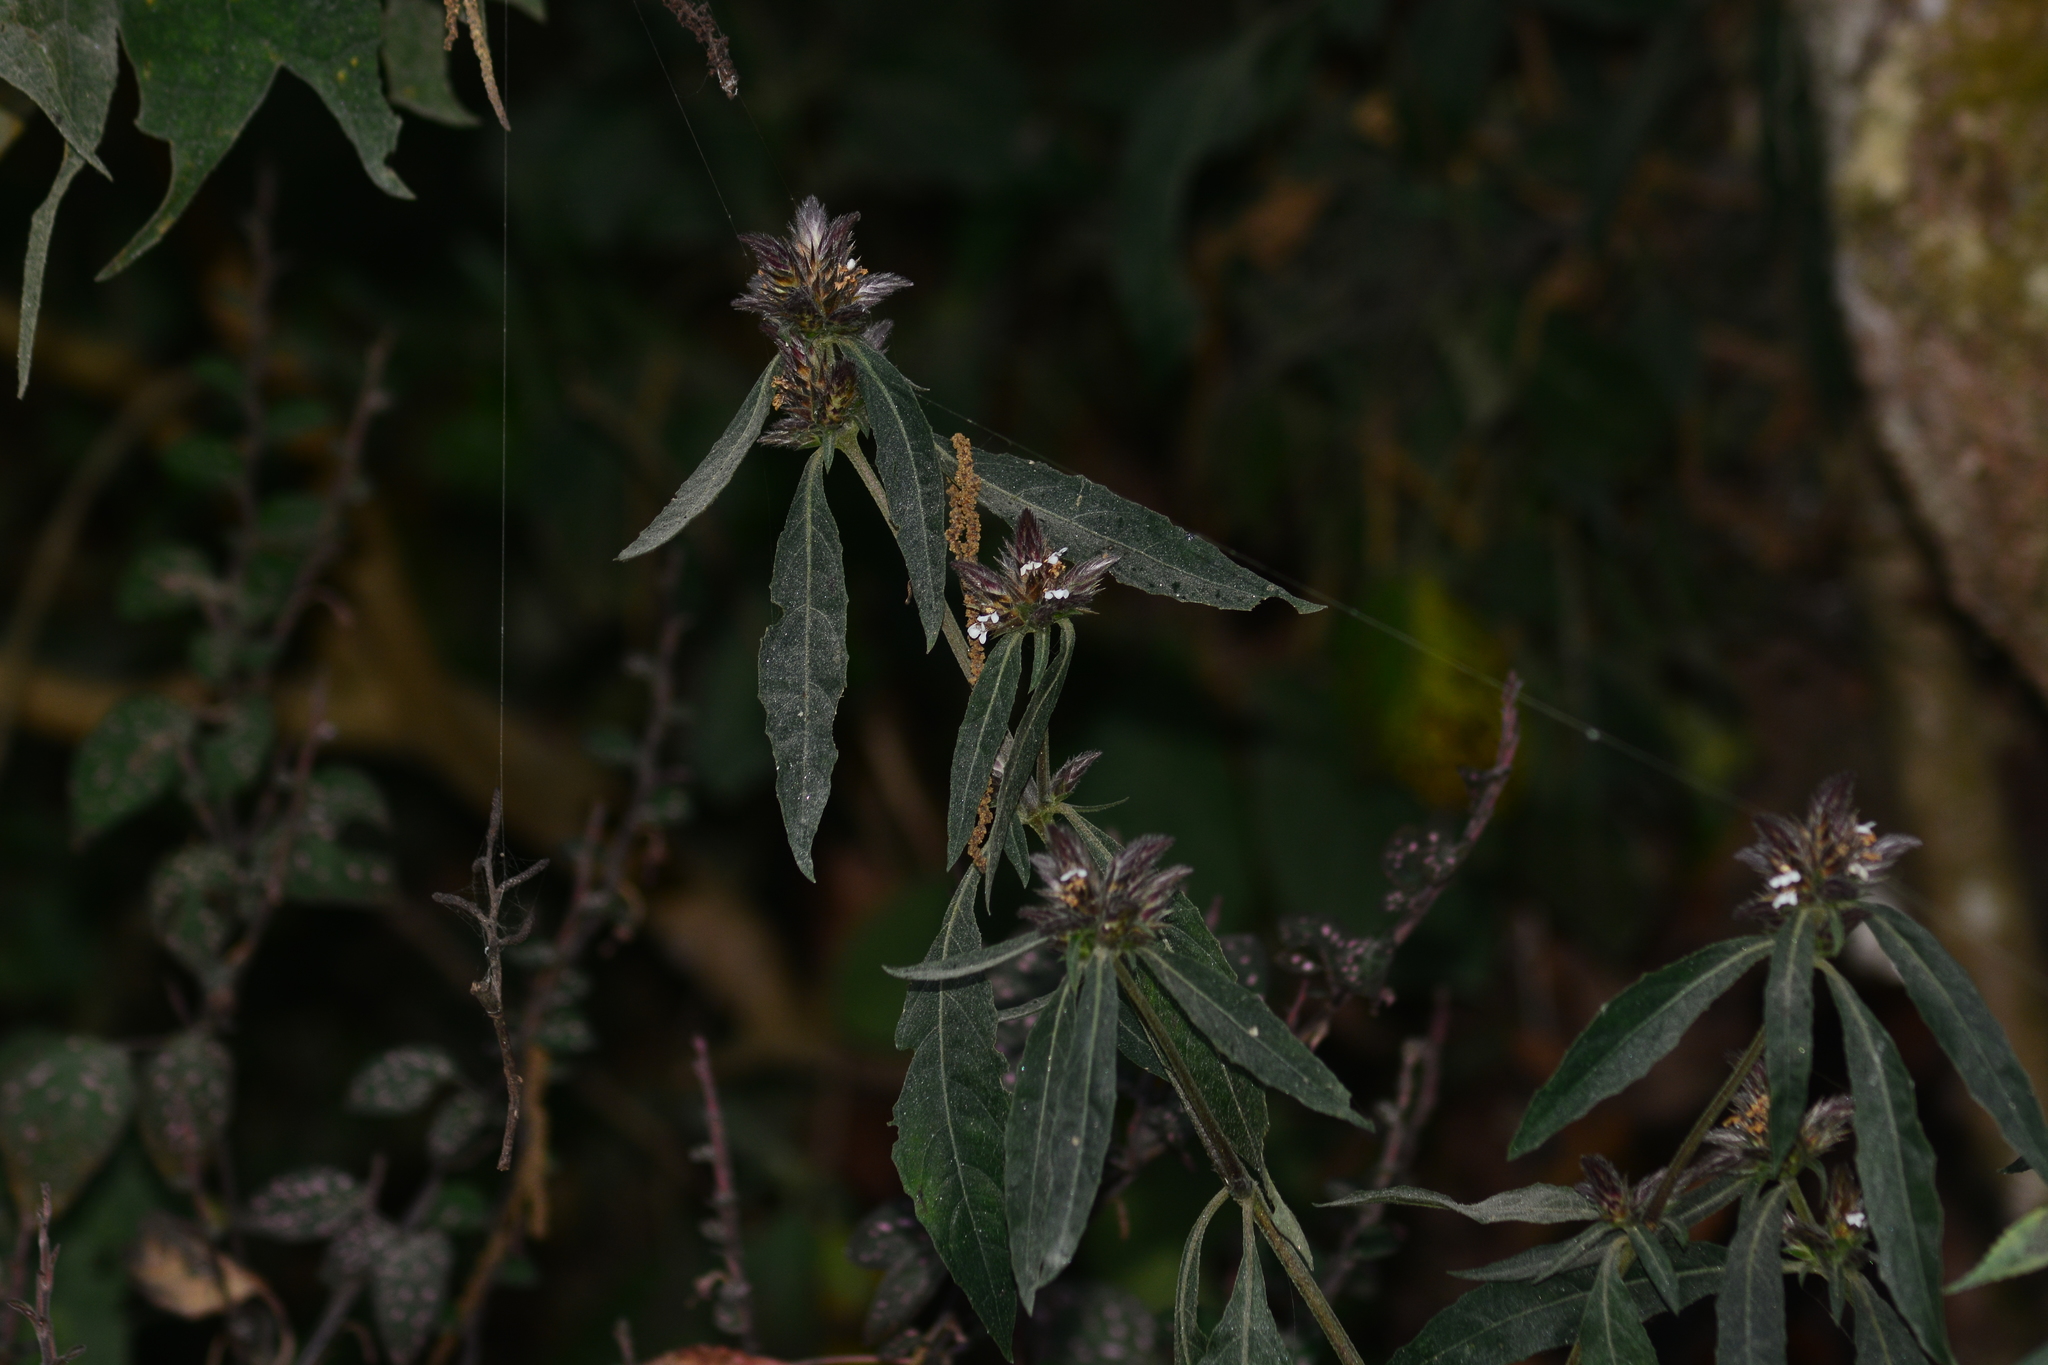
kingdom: Plantae
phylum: Tracheophyta
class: Magnoliopsida
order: Lamiales
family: Acanthaceae
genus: Lepidagathis
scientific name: Lepidagathis incurva
